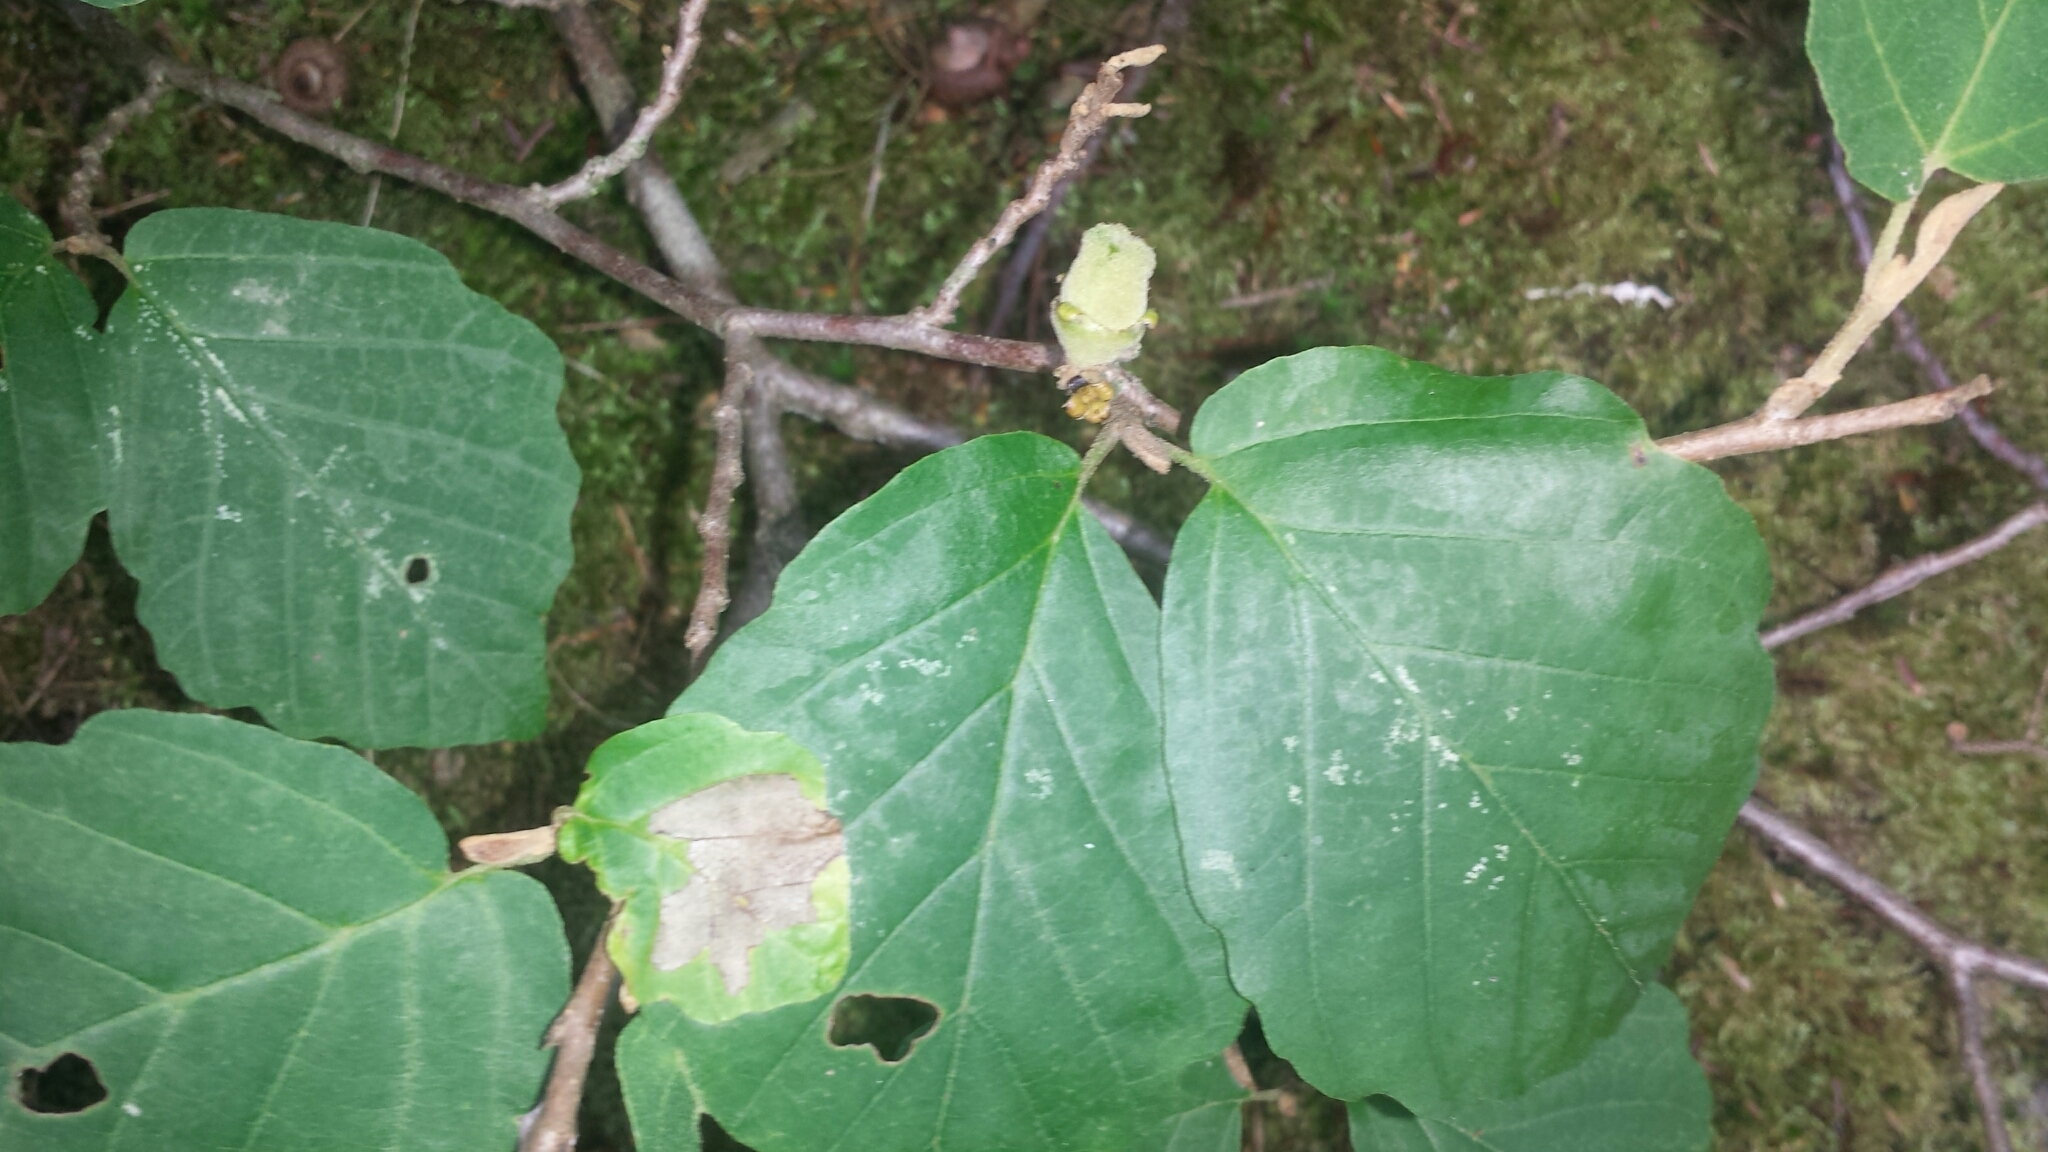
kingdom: Plantae
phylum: Tracheophyta
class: Magnoliopsida
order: Saxifragales
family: Hamamelidaceae
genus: Hamamelis
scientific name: Hamamelis virginiana
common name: Witch-hazel
